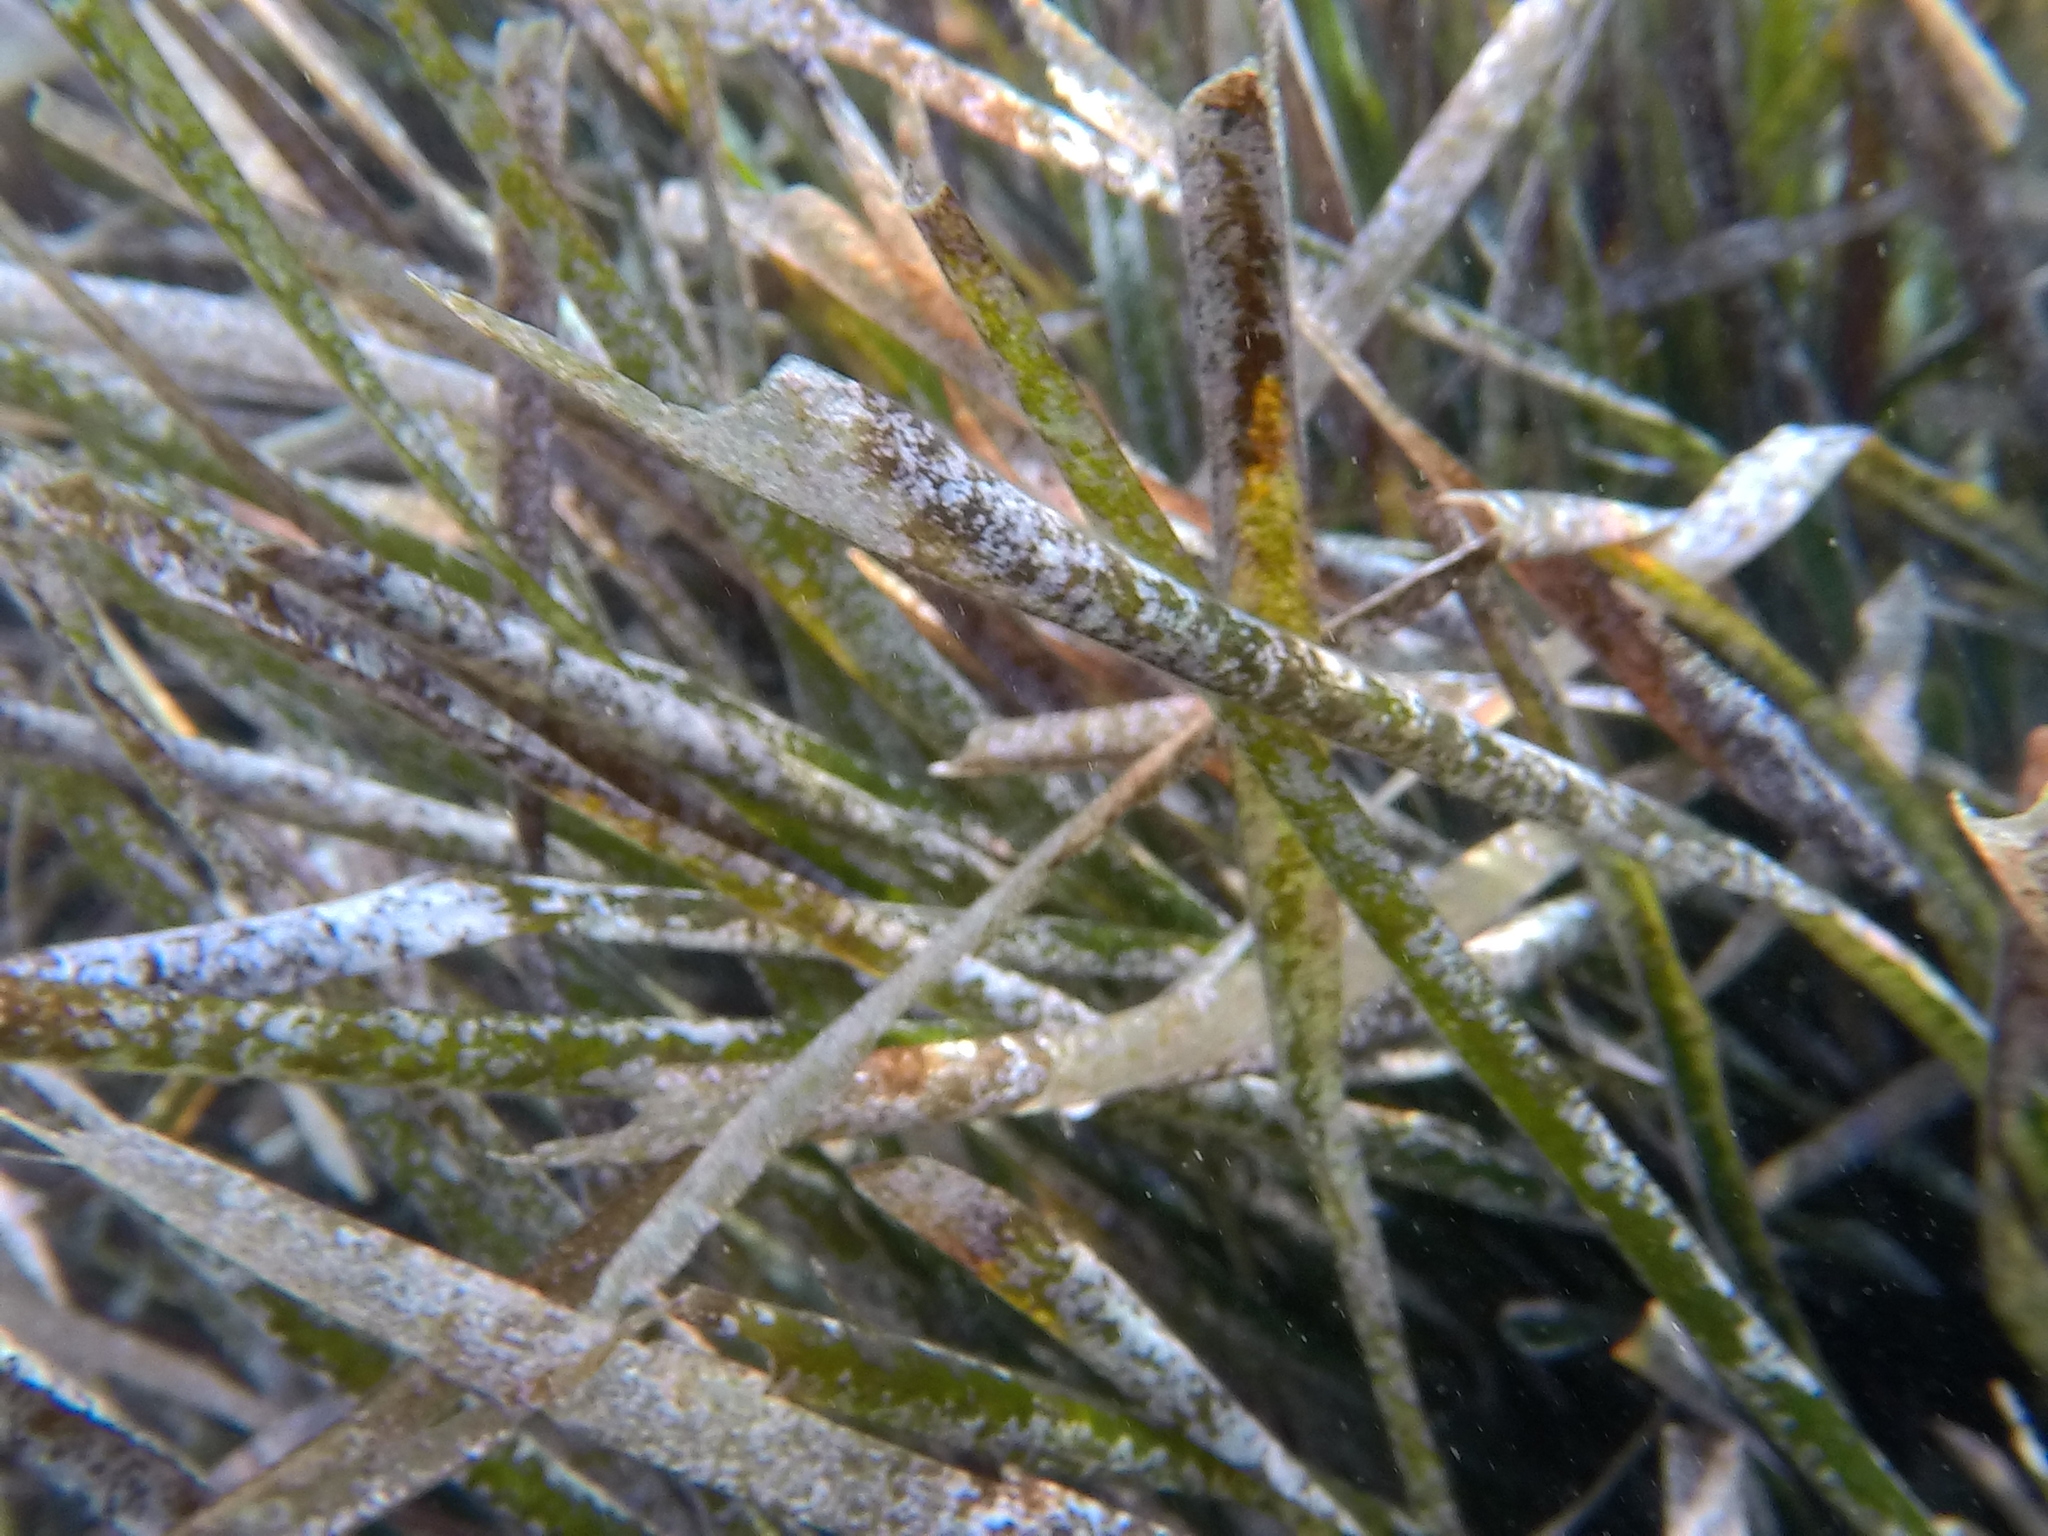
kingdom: Plantae
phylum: Tracheophyta
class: Liliopsida
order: Alismatales
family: Posidoniaceae
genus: Posidonia
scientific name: Posidonia oceanica
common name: Mediterranean tapeweed
